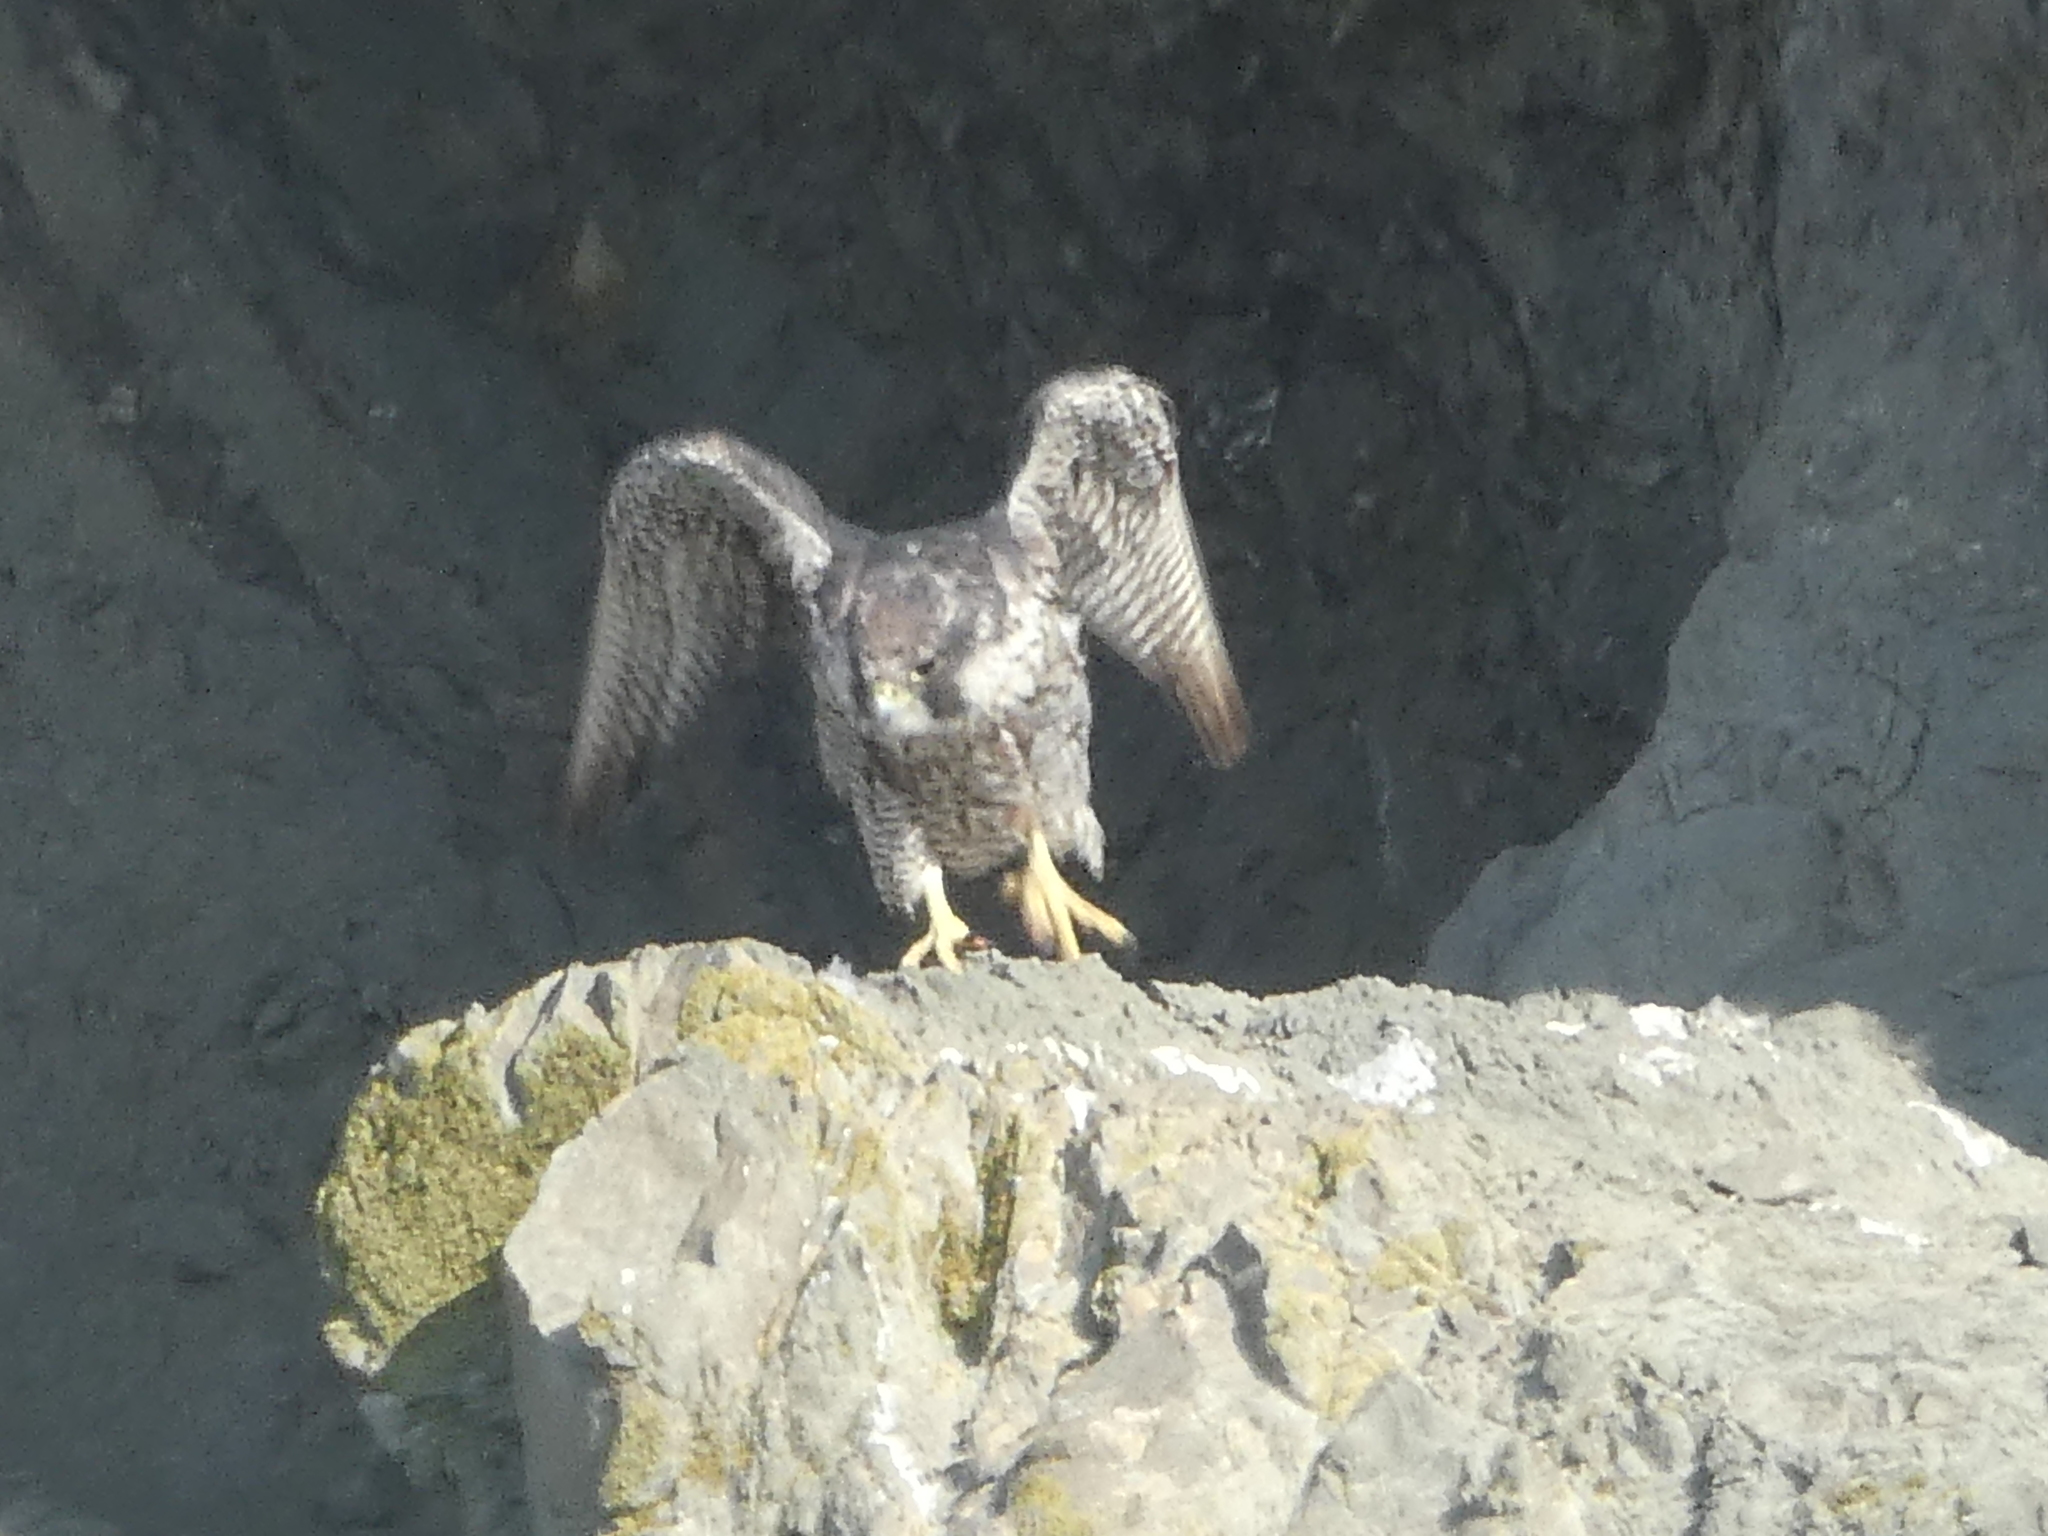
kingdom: Animalia
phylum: Chordata
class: Aves
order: Falconiformes
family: Falconidae
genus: Falco
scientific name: Falco peregrinus
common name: Peregrine falcon
